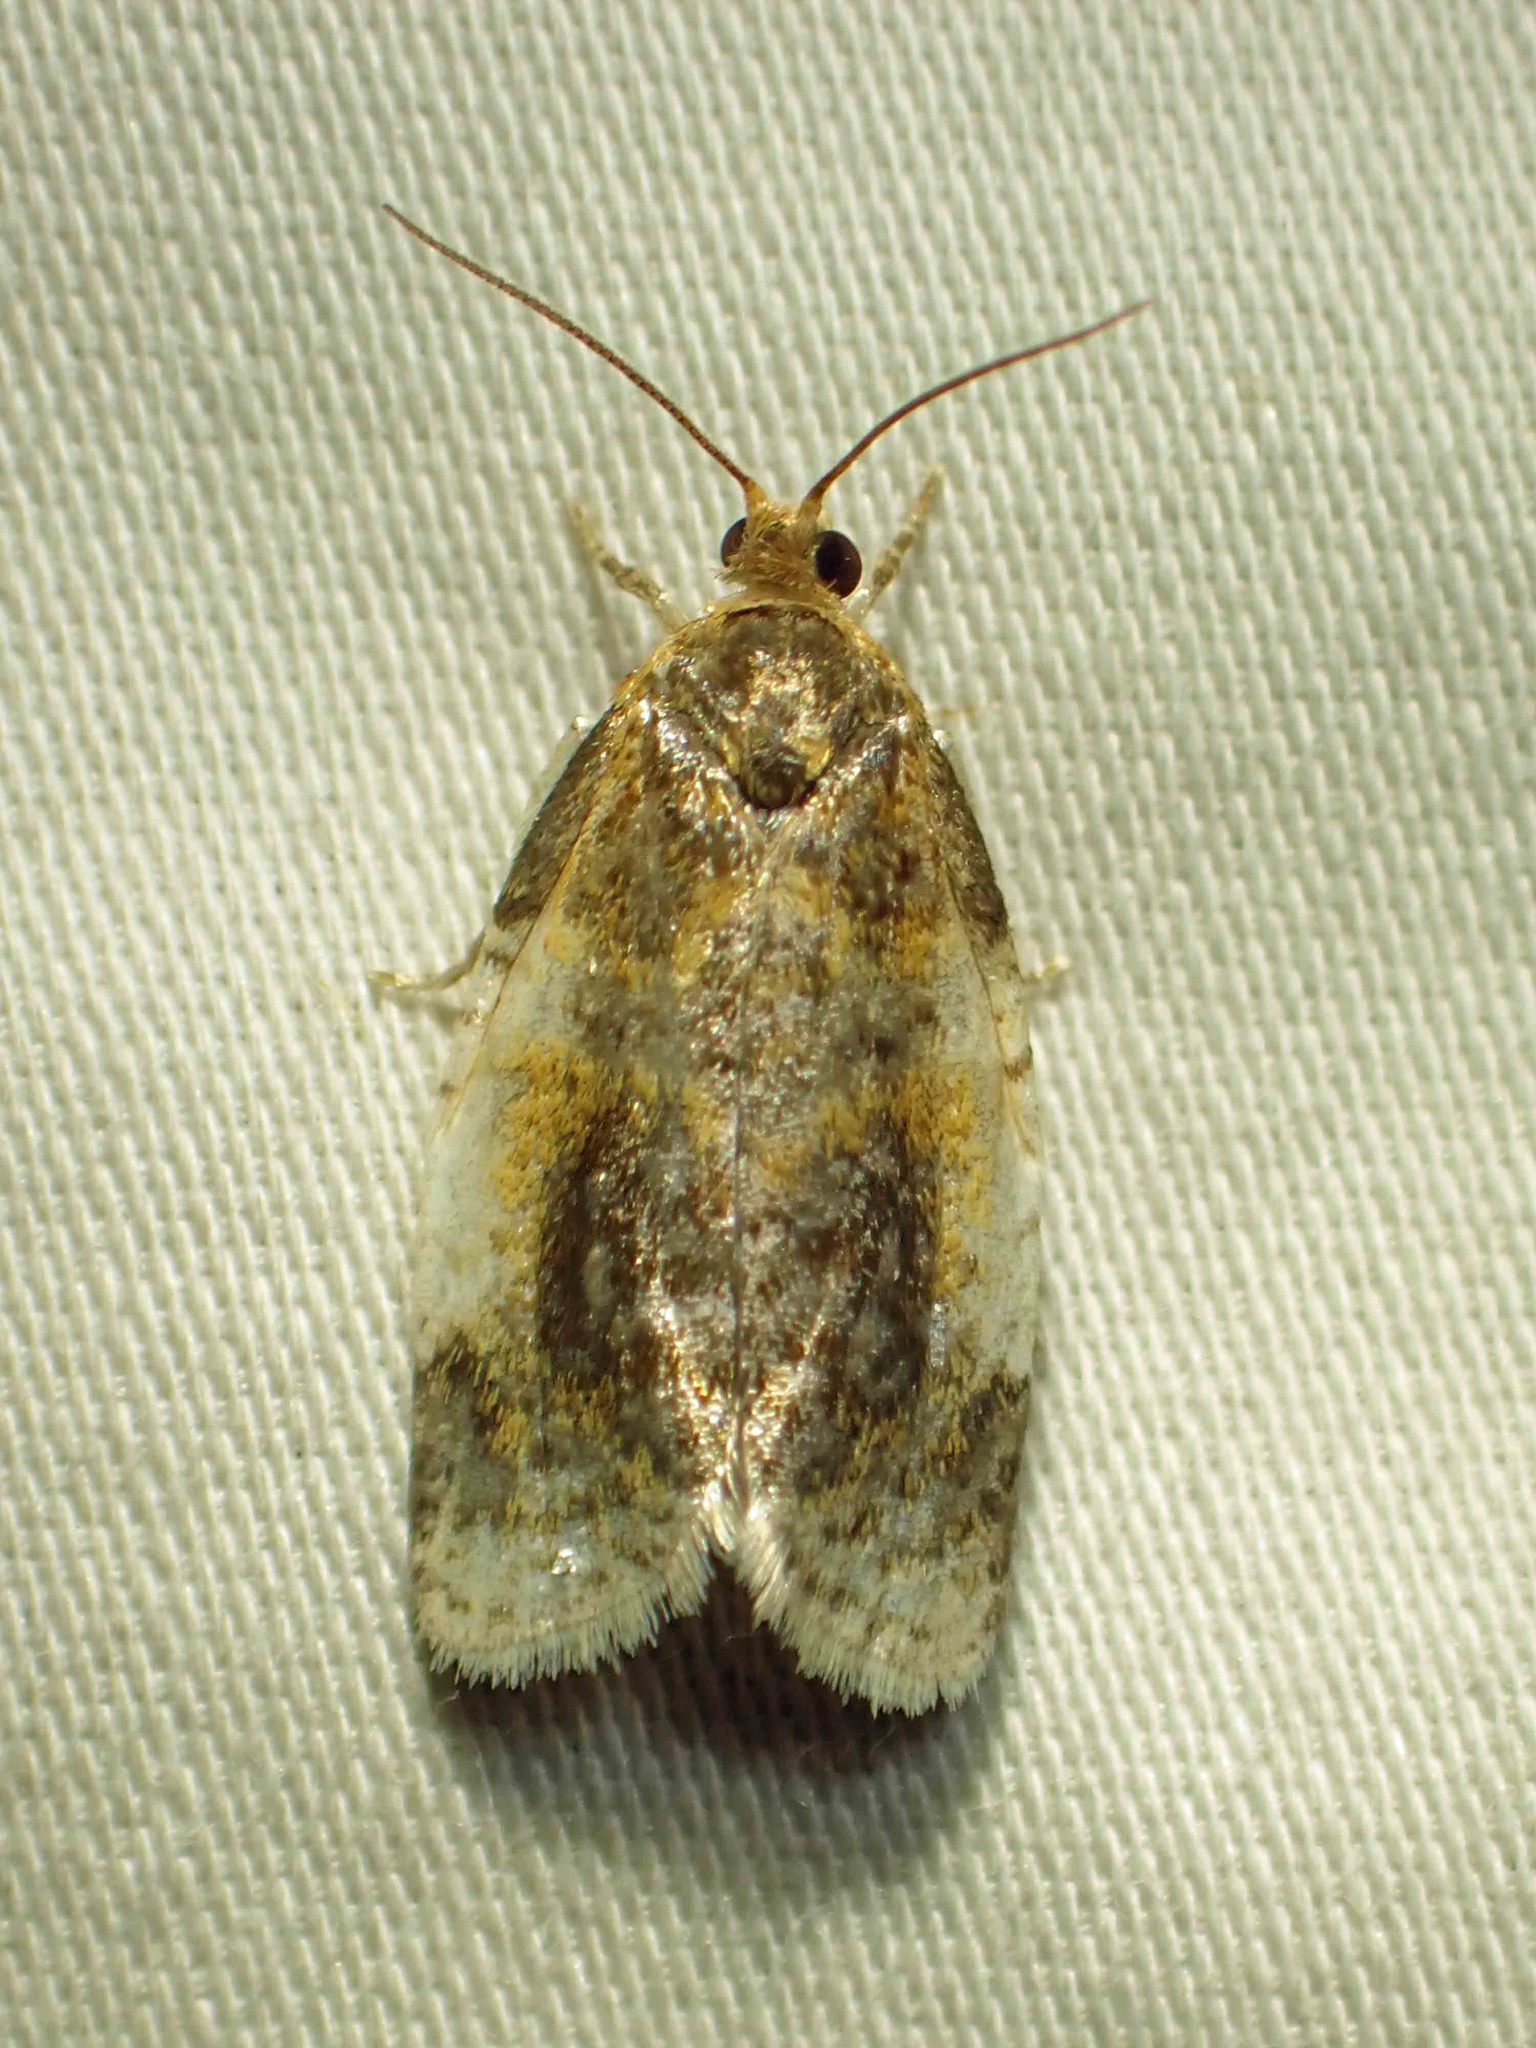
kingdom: Animalia
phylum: Arthropoda
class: Insecta
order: Lepidoptera
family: Tortricidae
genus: Clepsis
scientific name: Clepsis melaleucanus
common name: American apple tortrix
